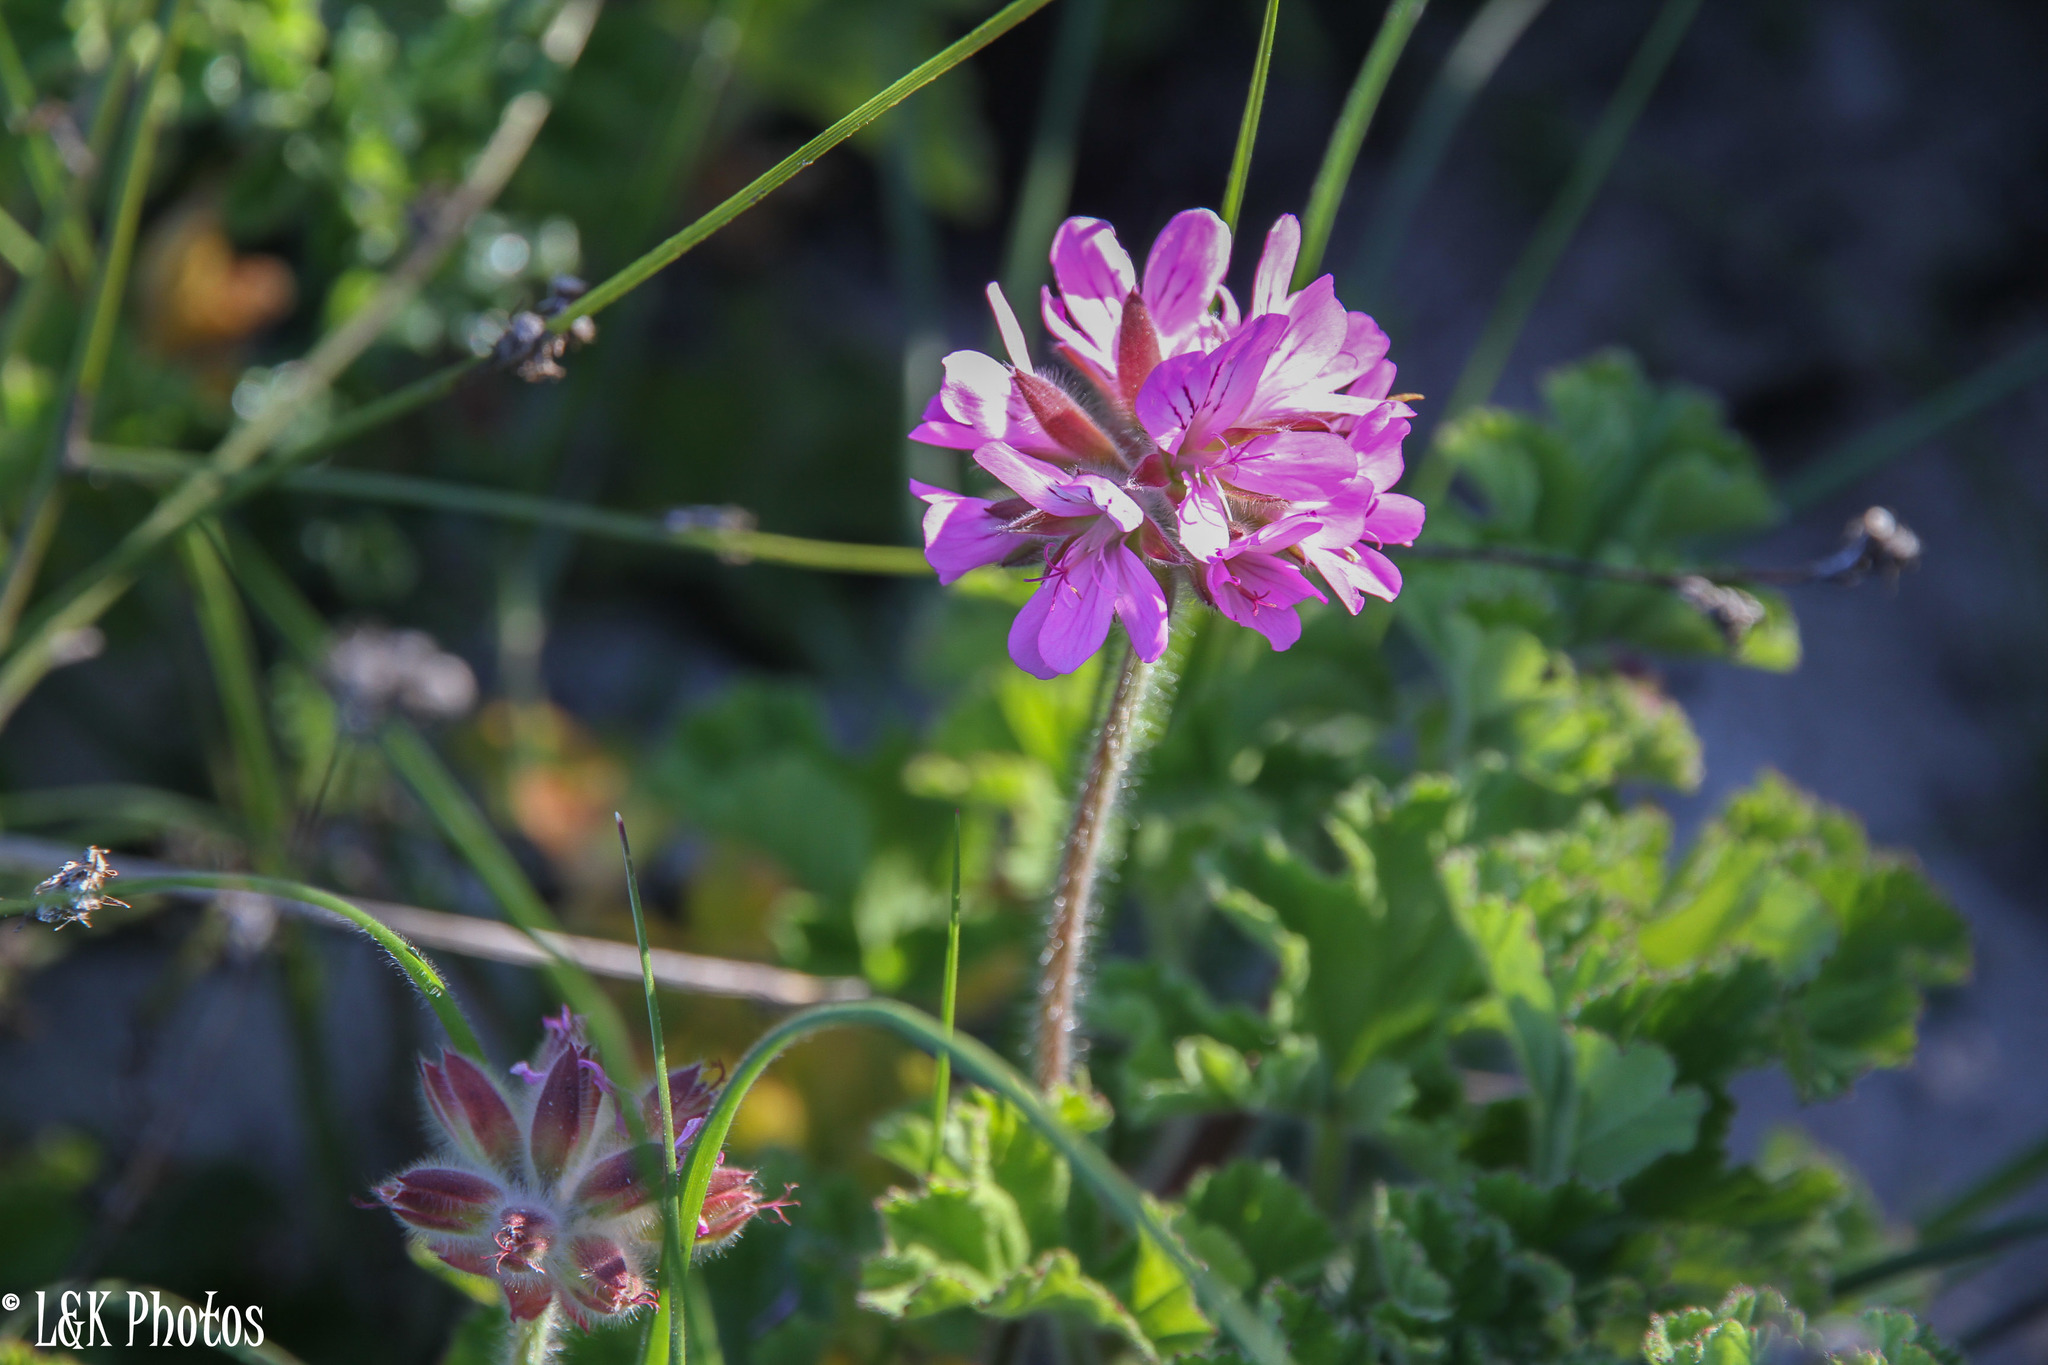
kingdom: Plantae
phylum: Tracheophyta
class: Magnoliopsida
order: Geraniales
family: Geraniaceae
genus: Pelargonium
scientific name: Pelargonium capitatum
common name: Rose scented geranium
